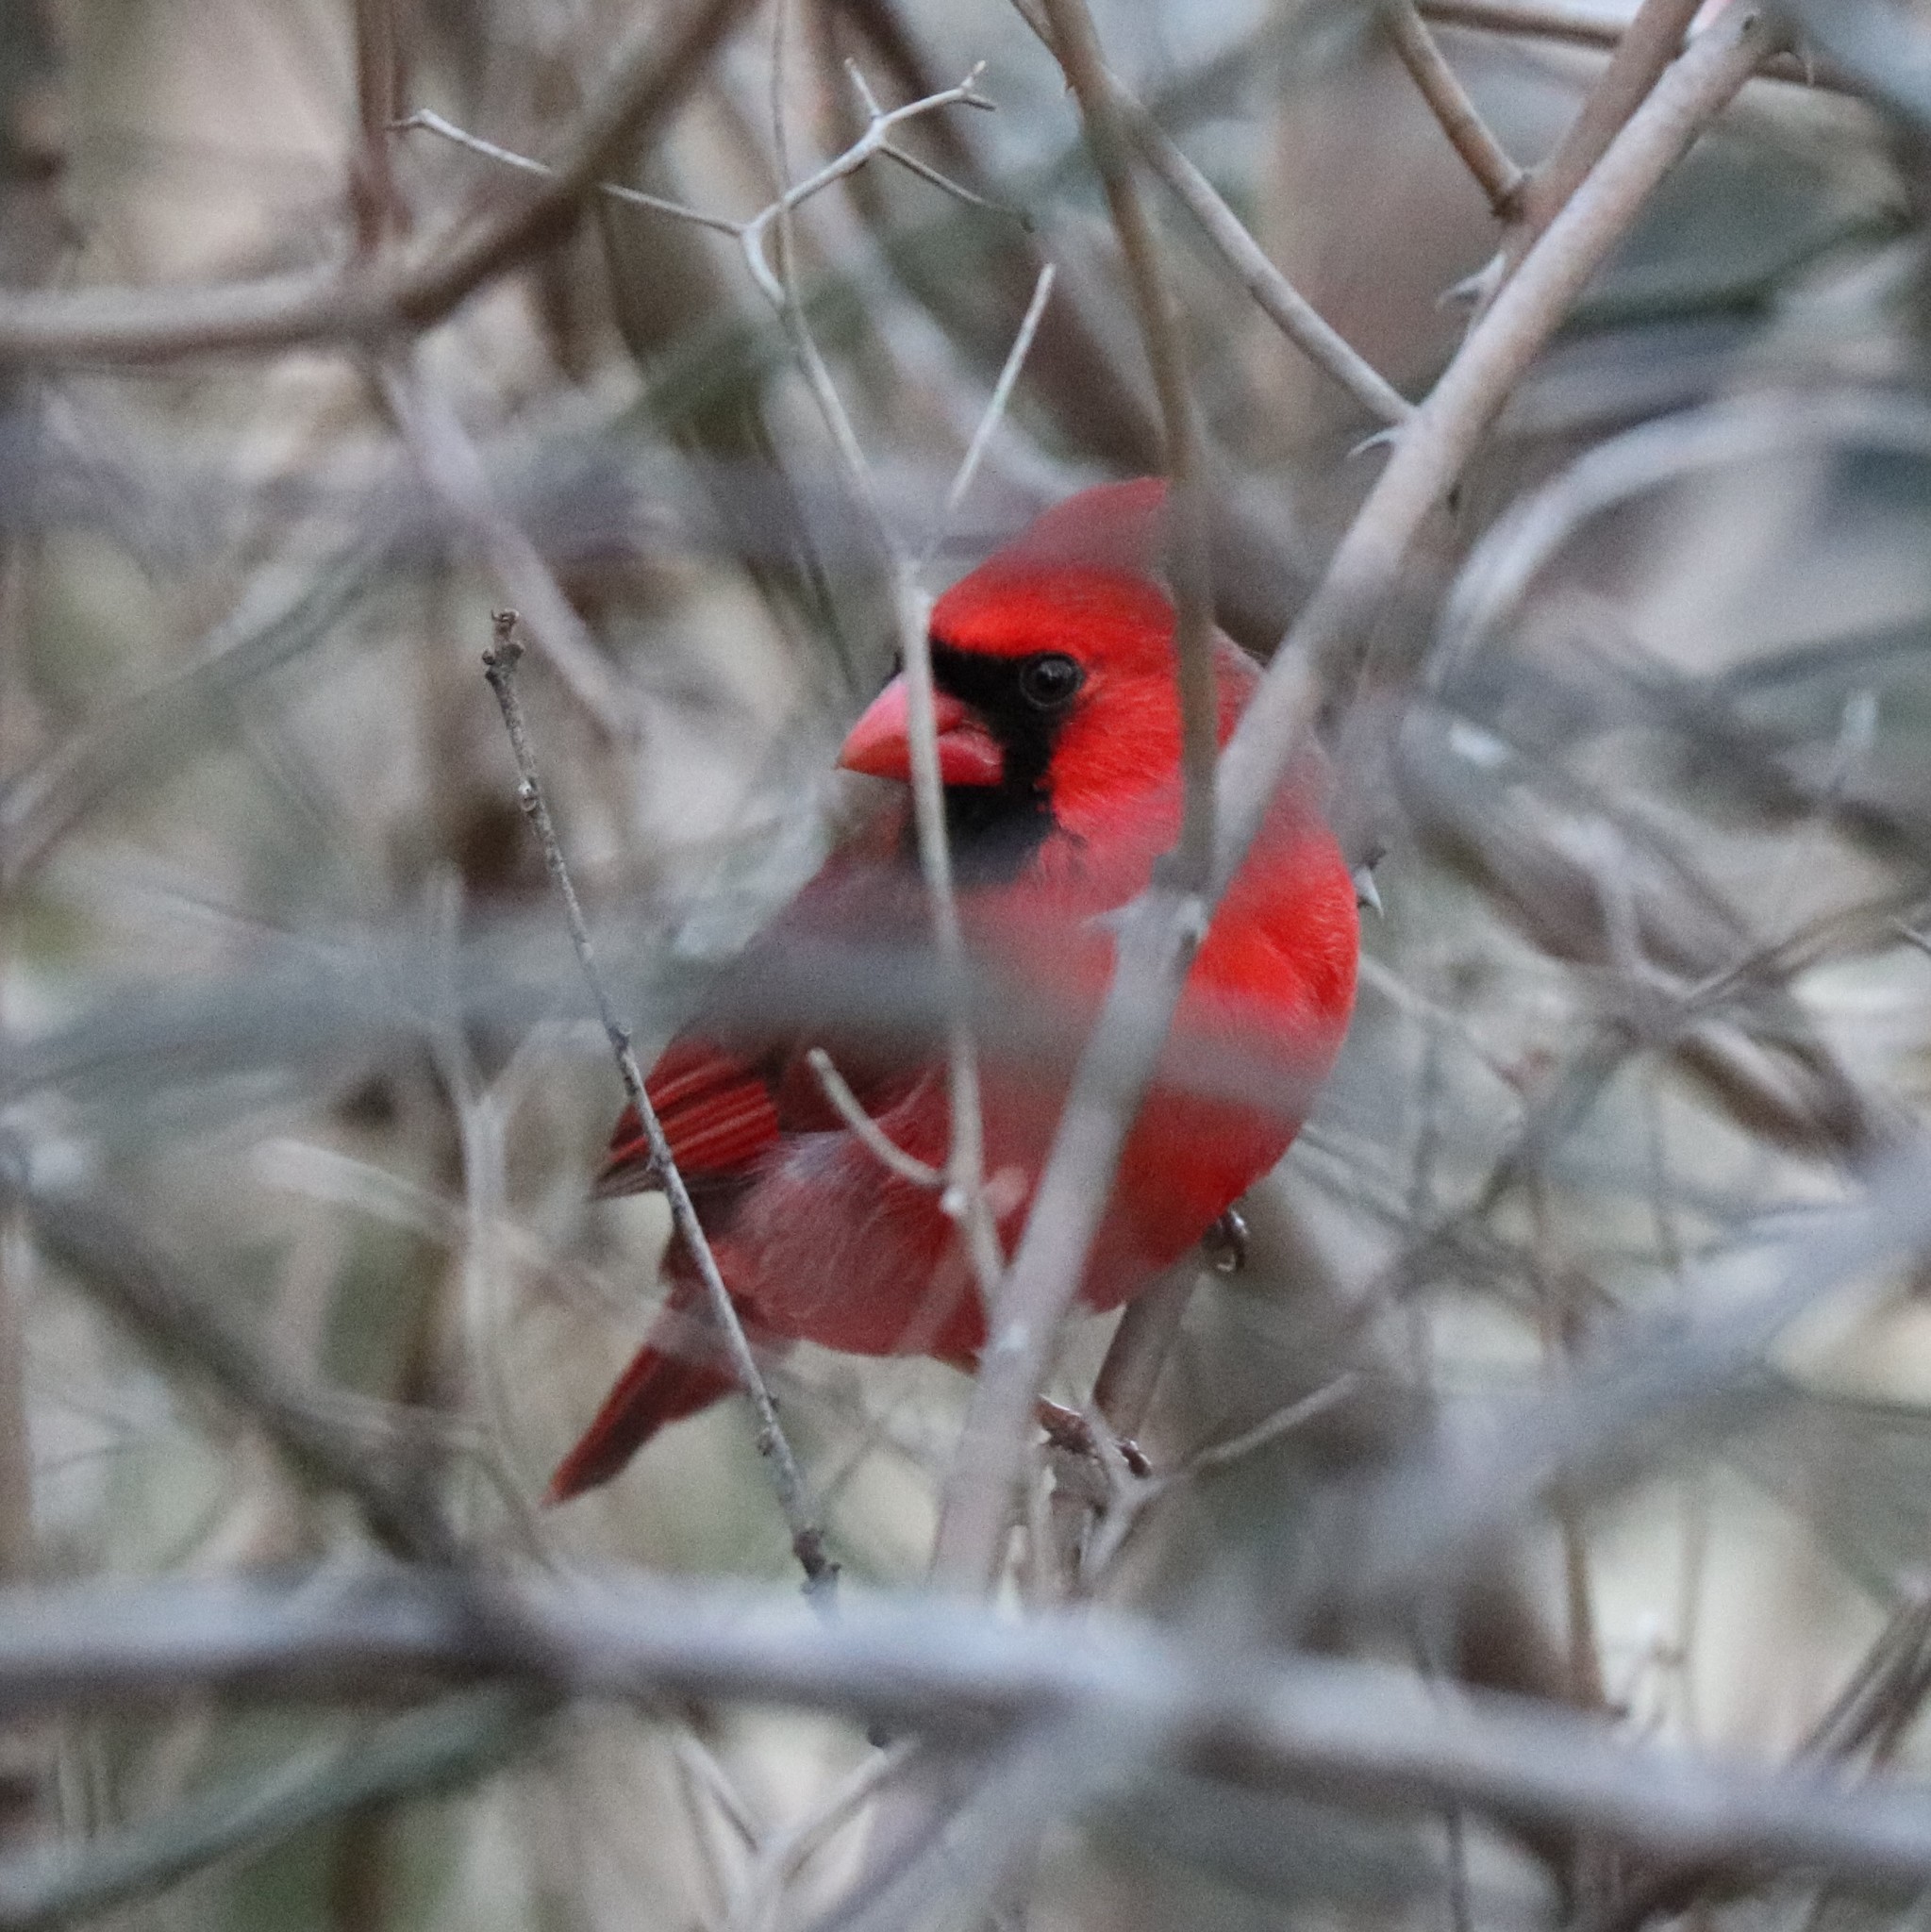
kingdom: Animalia
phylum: Chordata
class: Aves
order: Passeriformes
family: Cardinalidae
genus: Cardinalis
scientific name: Cardinalis cardinalis
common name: Northern cardinal
